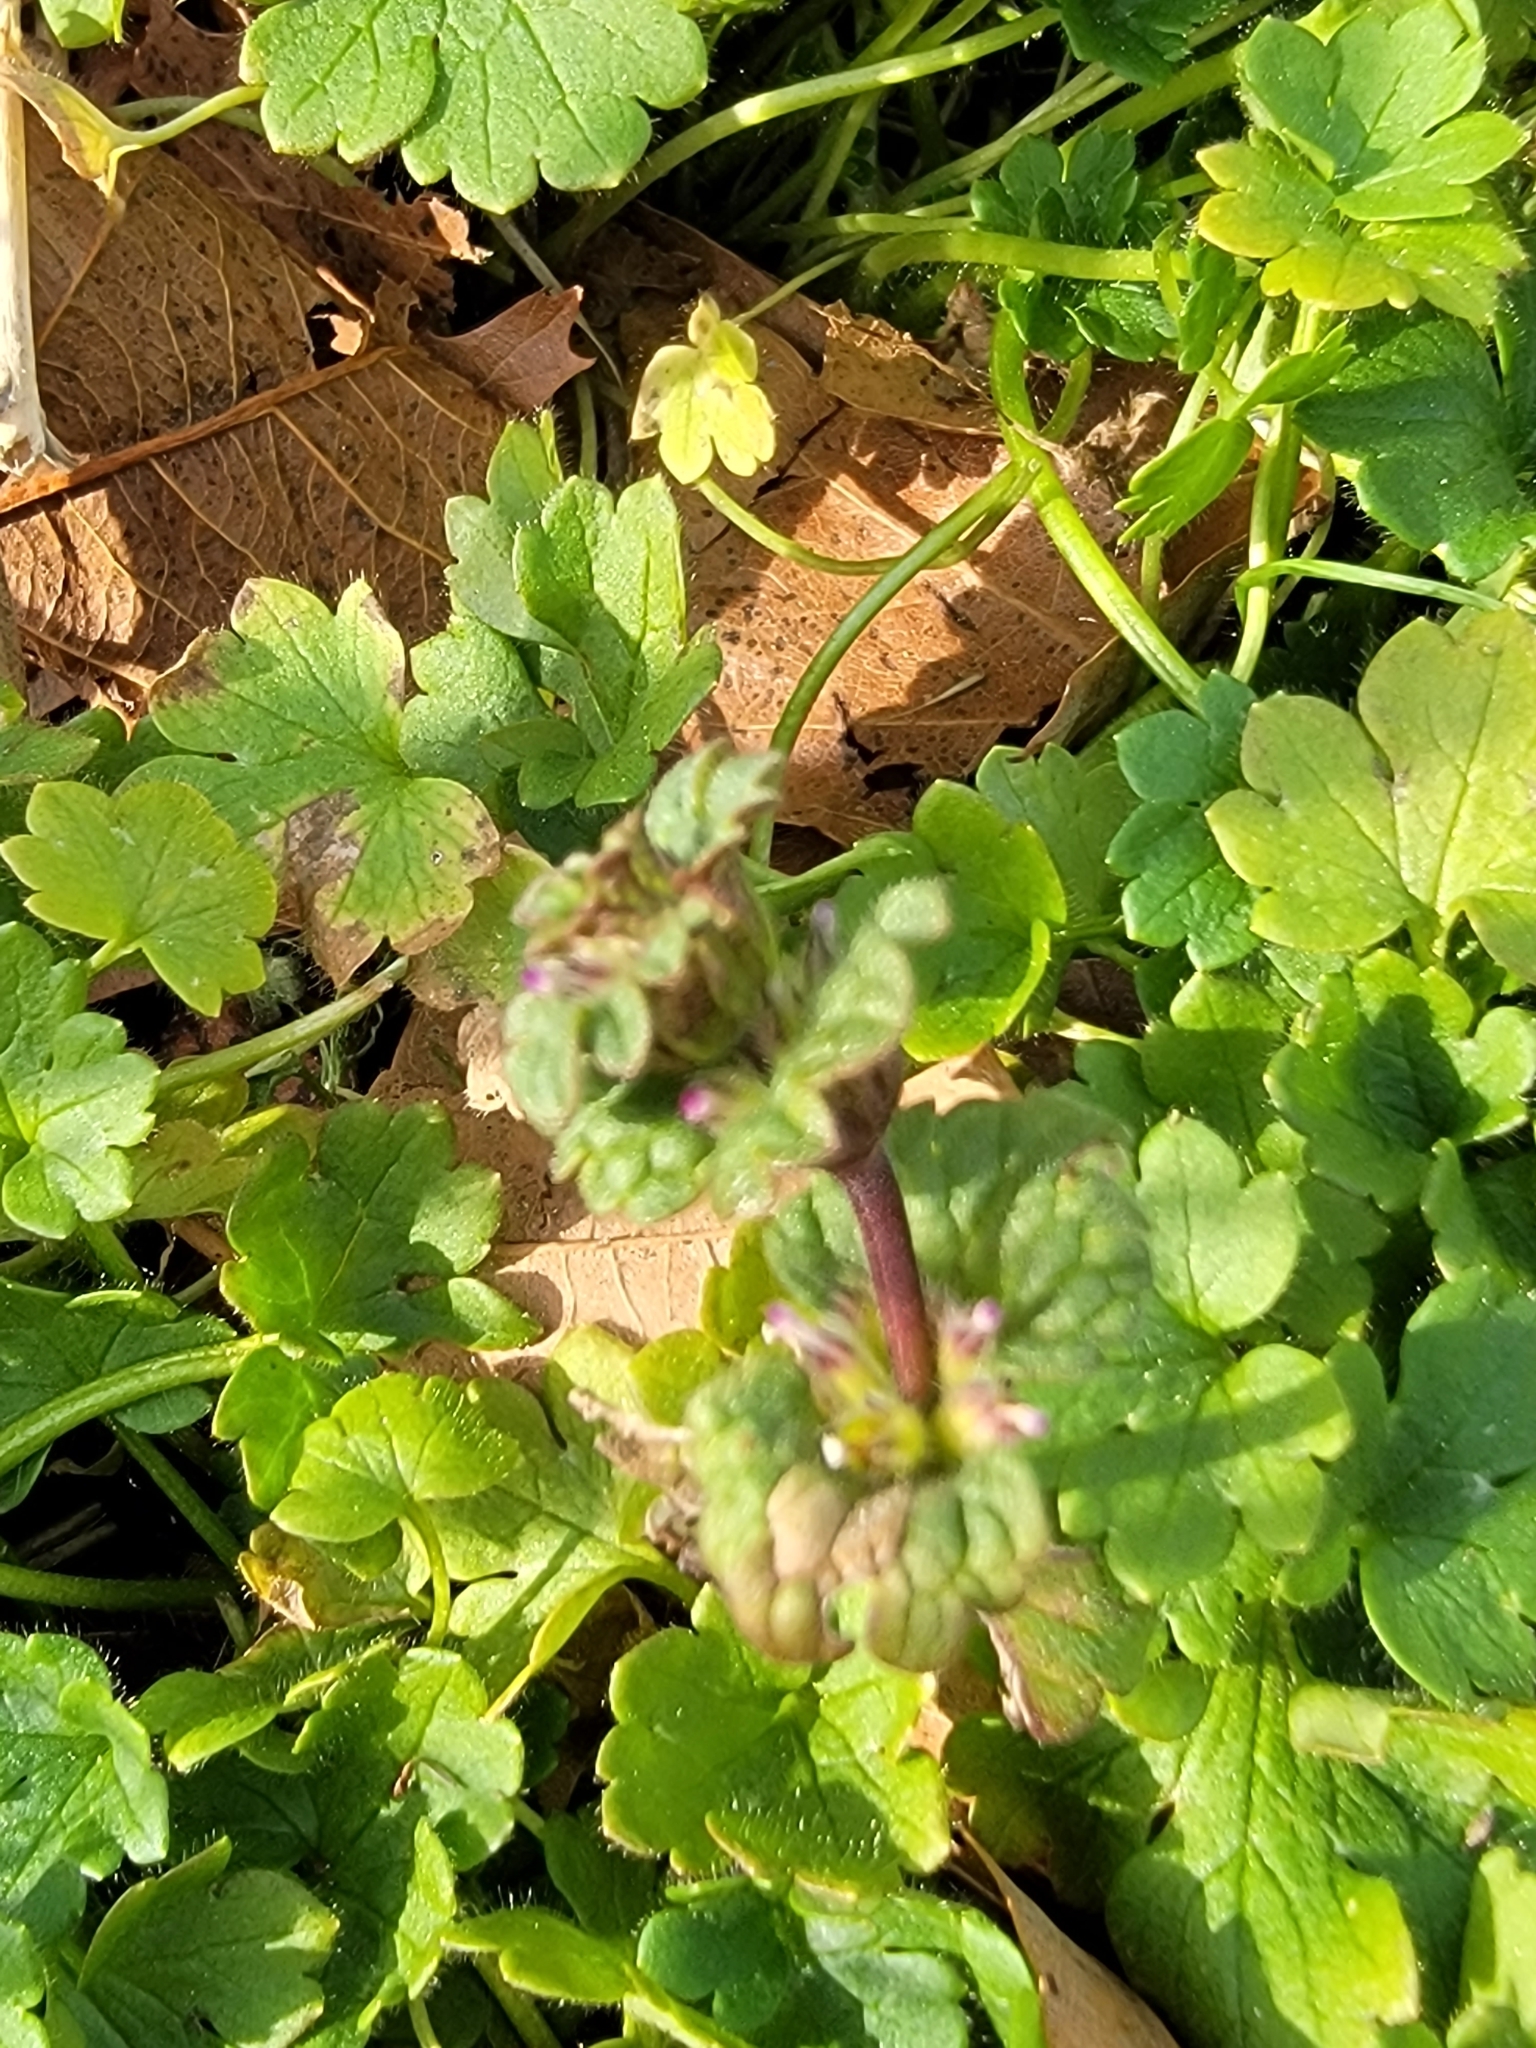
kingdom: Plantae
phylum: Tracheophyta
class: Magnoliopsida
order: Lamiales
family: Lamiaceae
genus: Lamium
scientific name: Lamium amplexicaule
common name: Henbit dead-nettle
